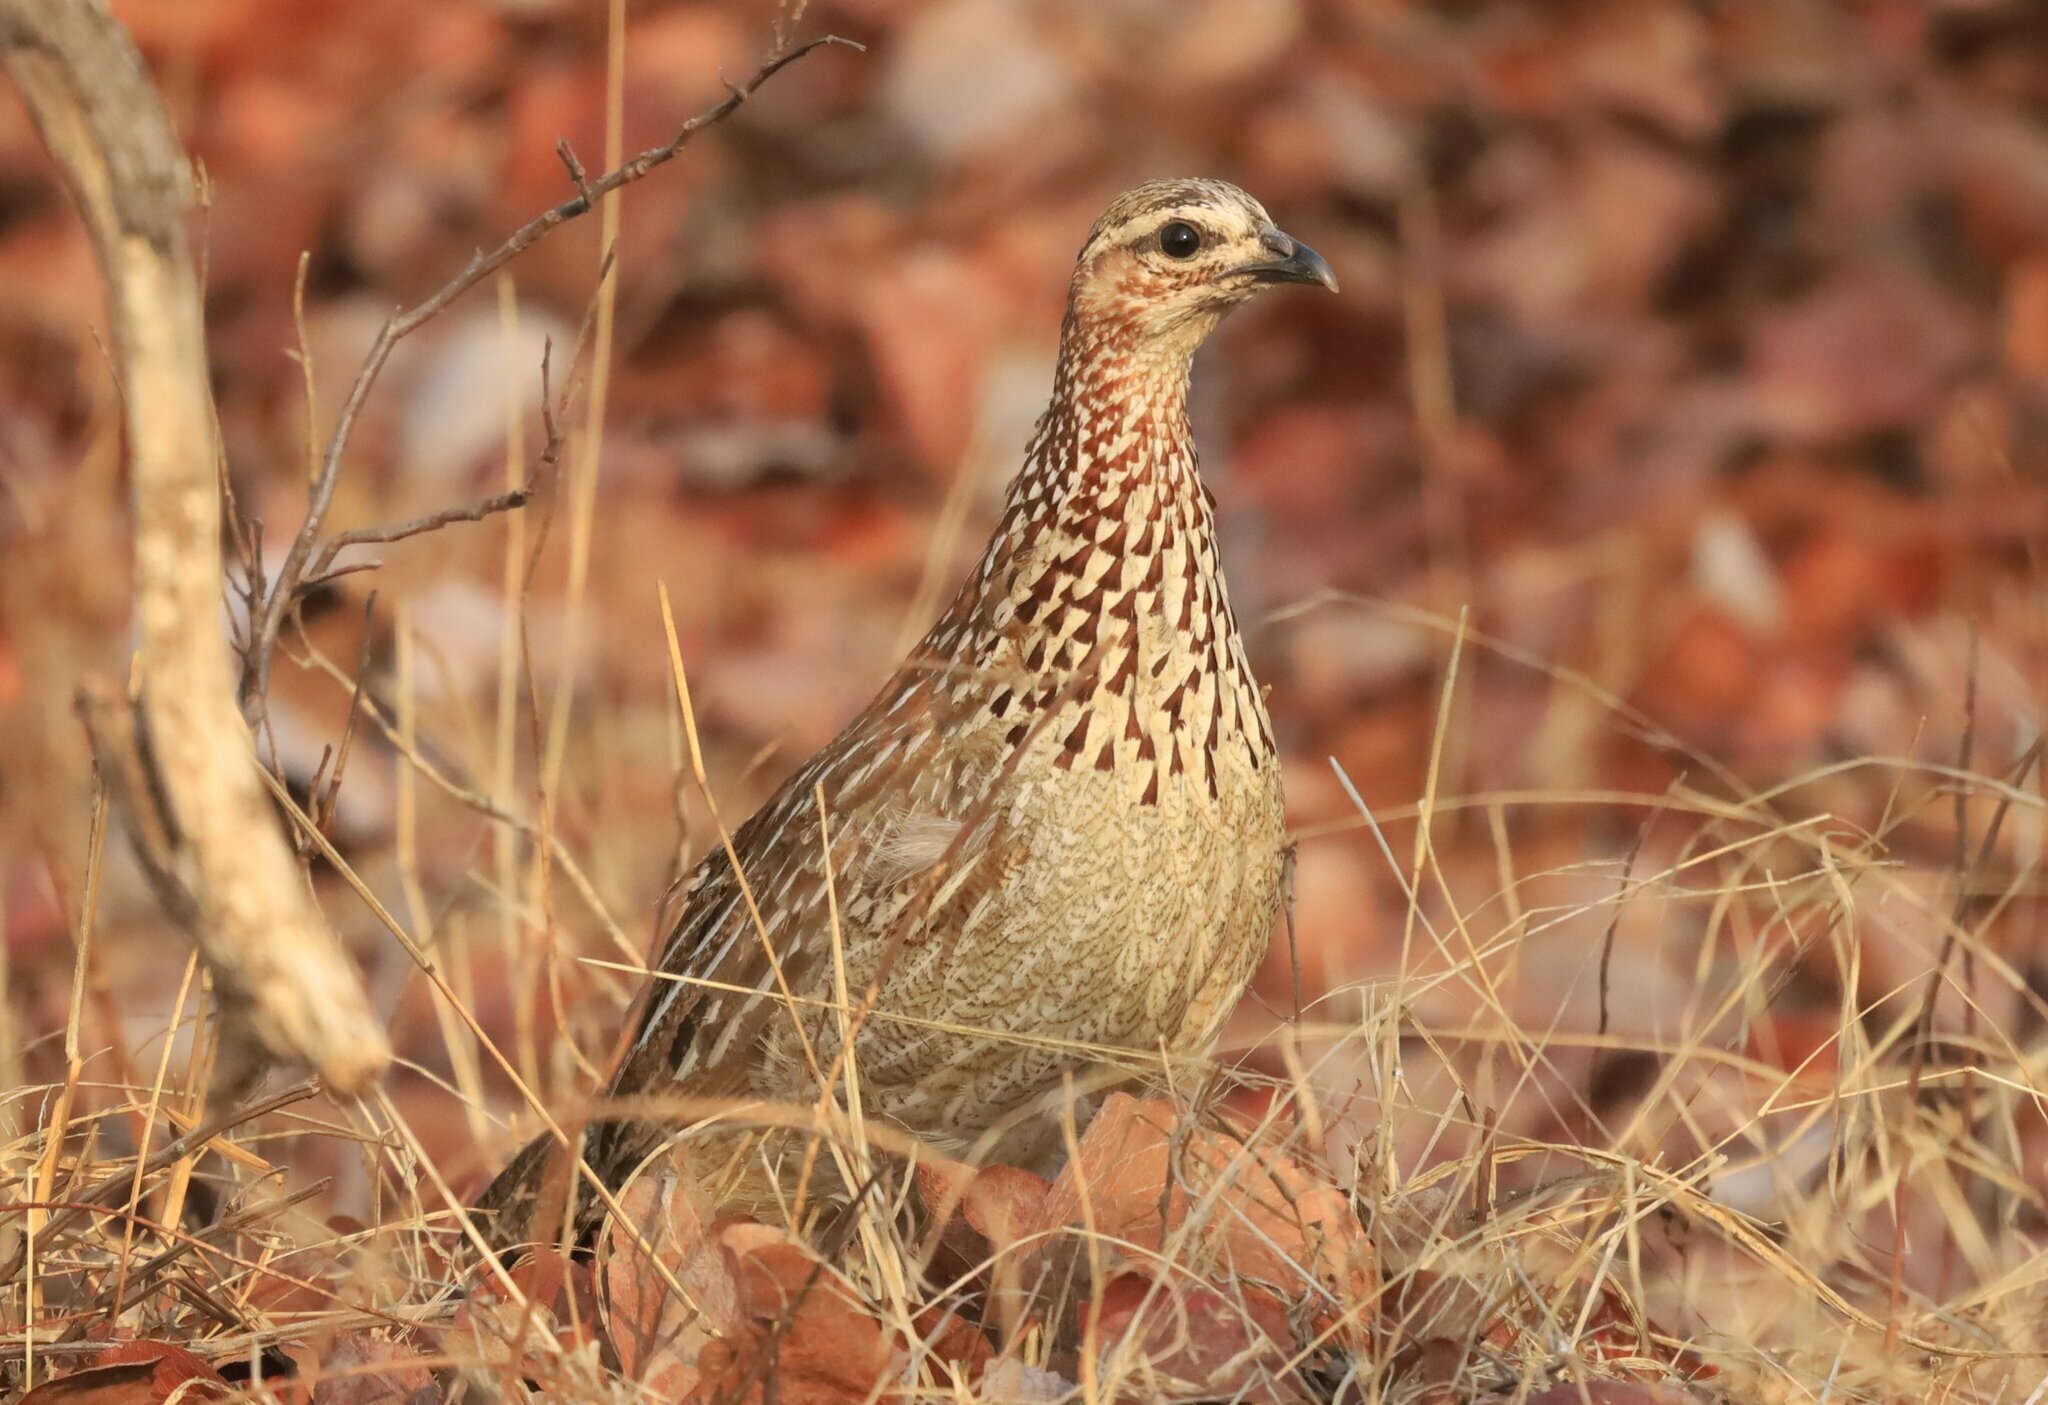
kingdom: Animalia
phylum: Chordata
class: Aves
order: Galliformes
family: Phasianidae
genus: Ortygornis
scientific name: Ortygornis sephaena
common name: Crested francolin
